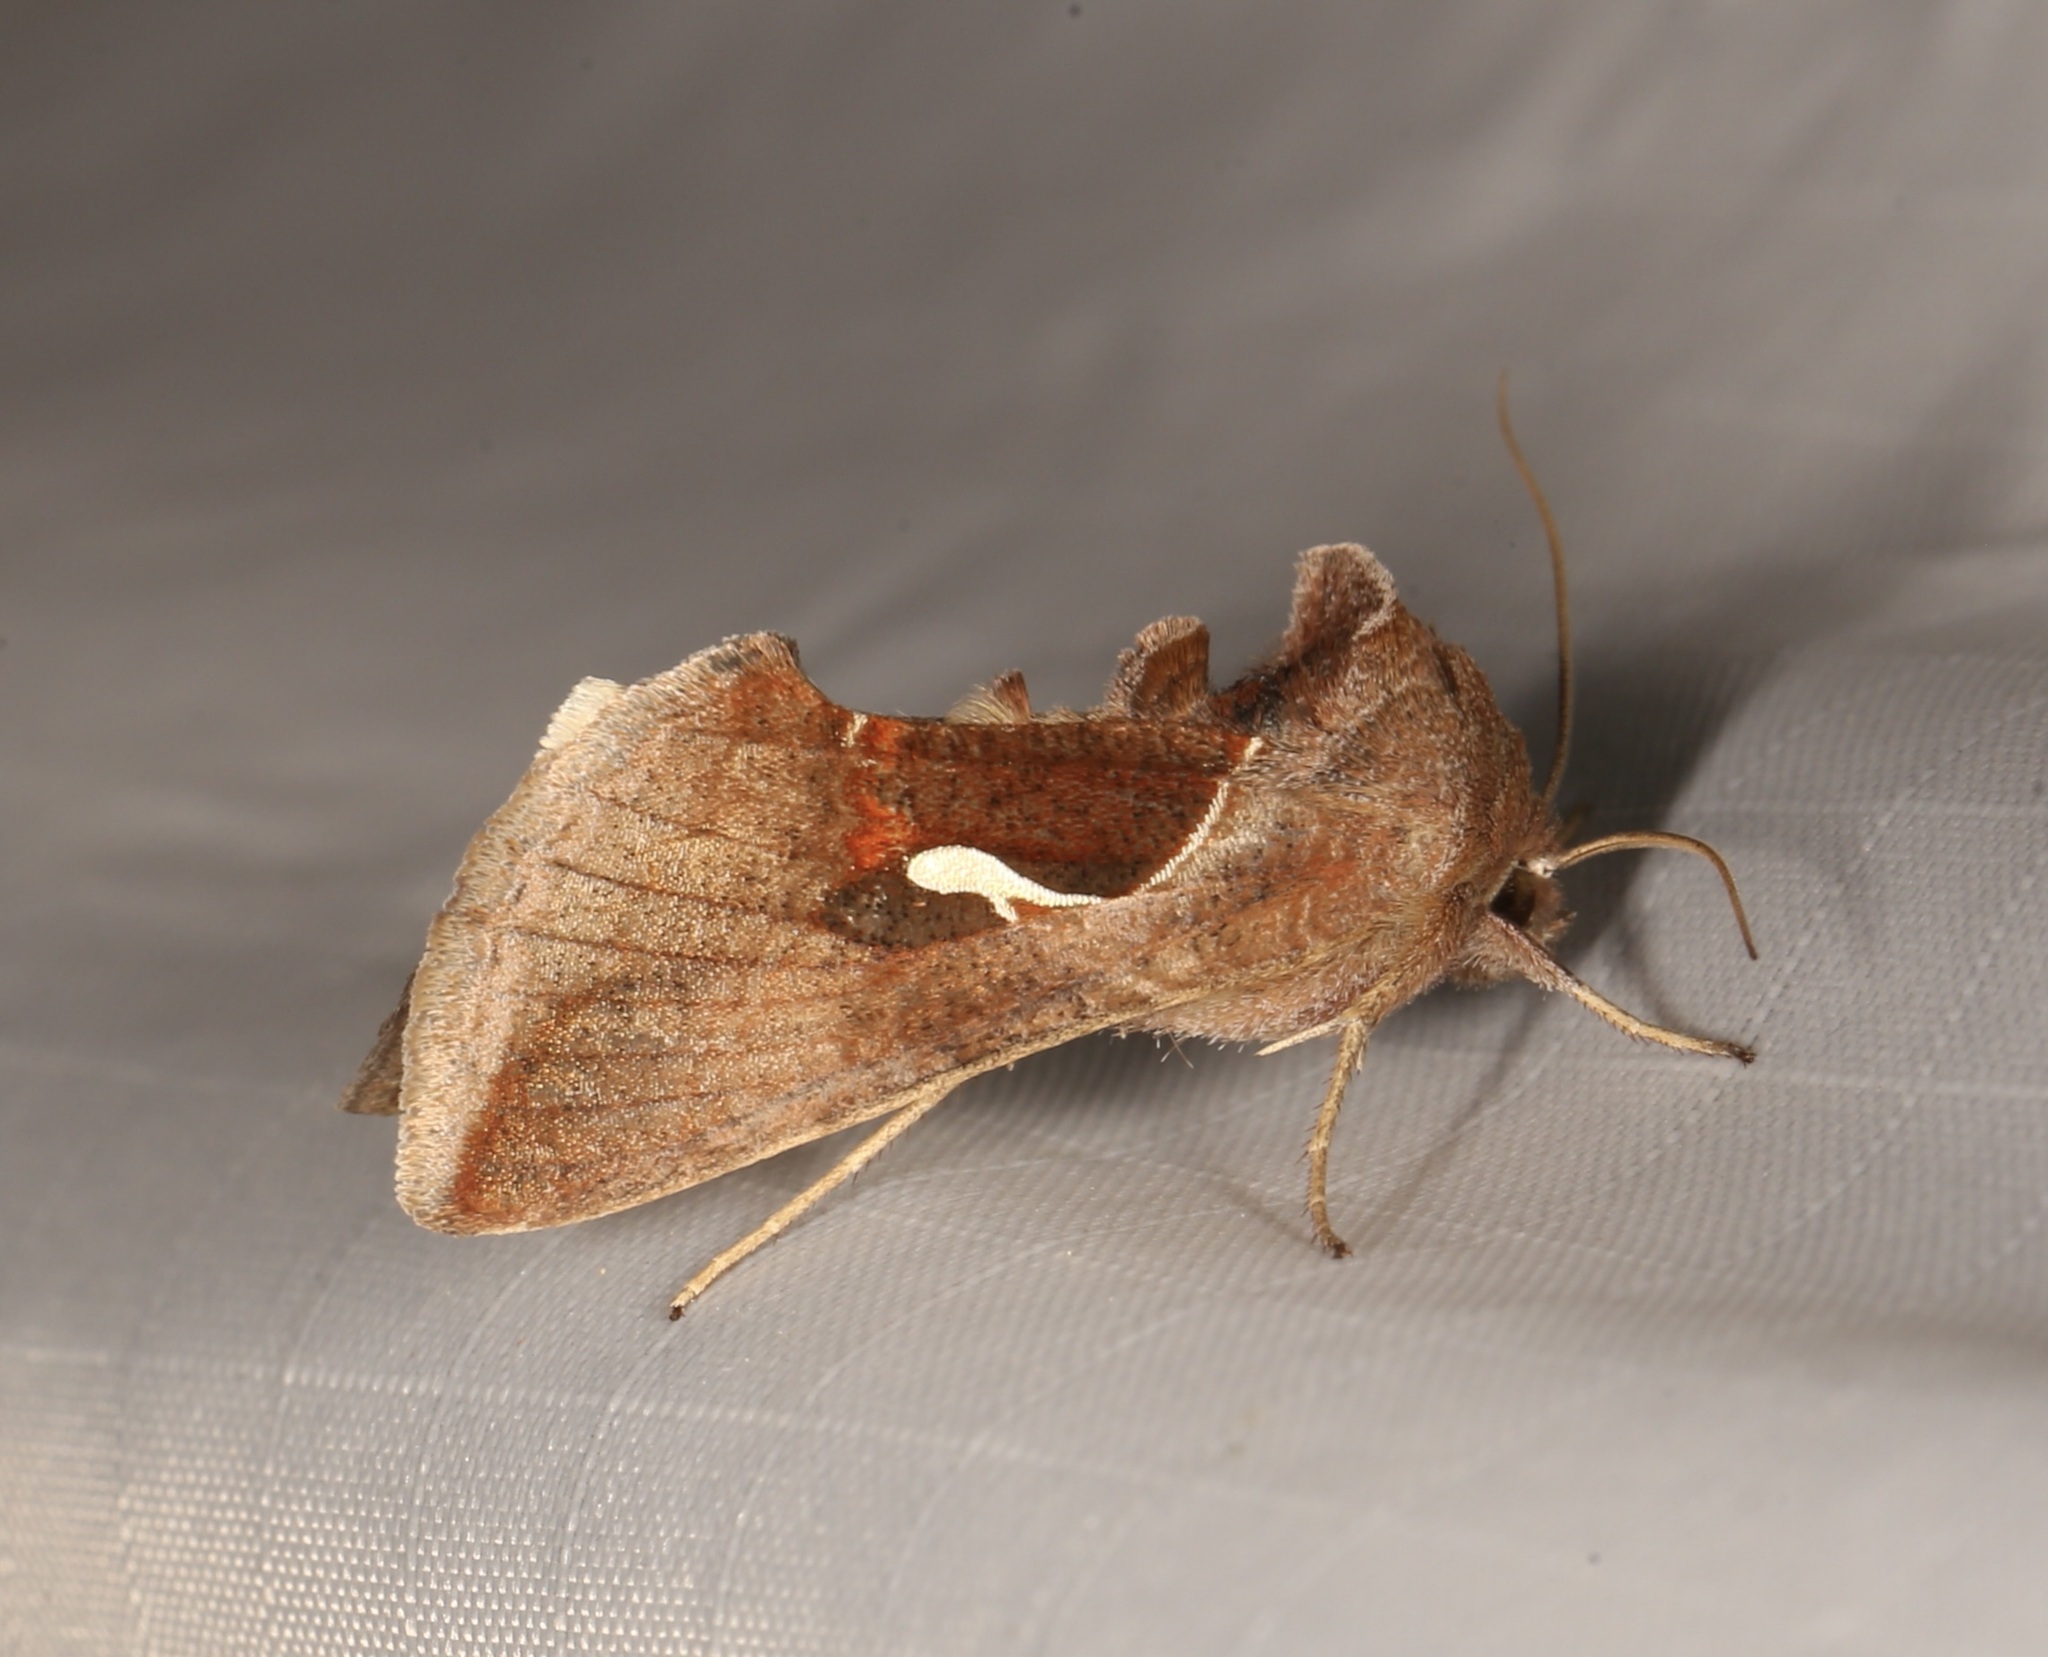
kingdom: Animalia
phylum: Arthropoda
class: Insecta
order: Lepidoptera
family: Noctuidae
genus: Anagrapha
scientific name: Anagrapha falcifera
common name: Celery looper
